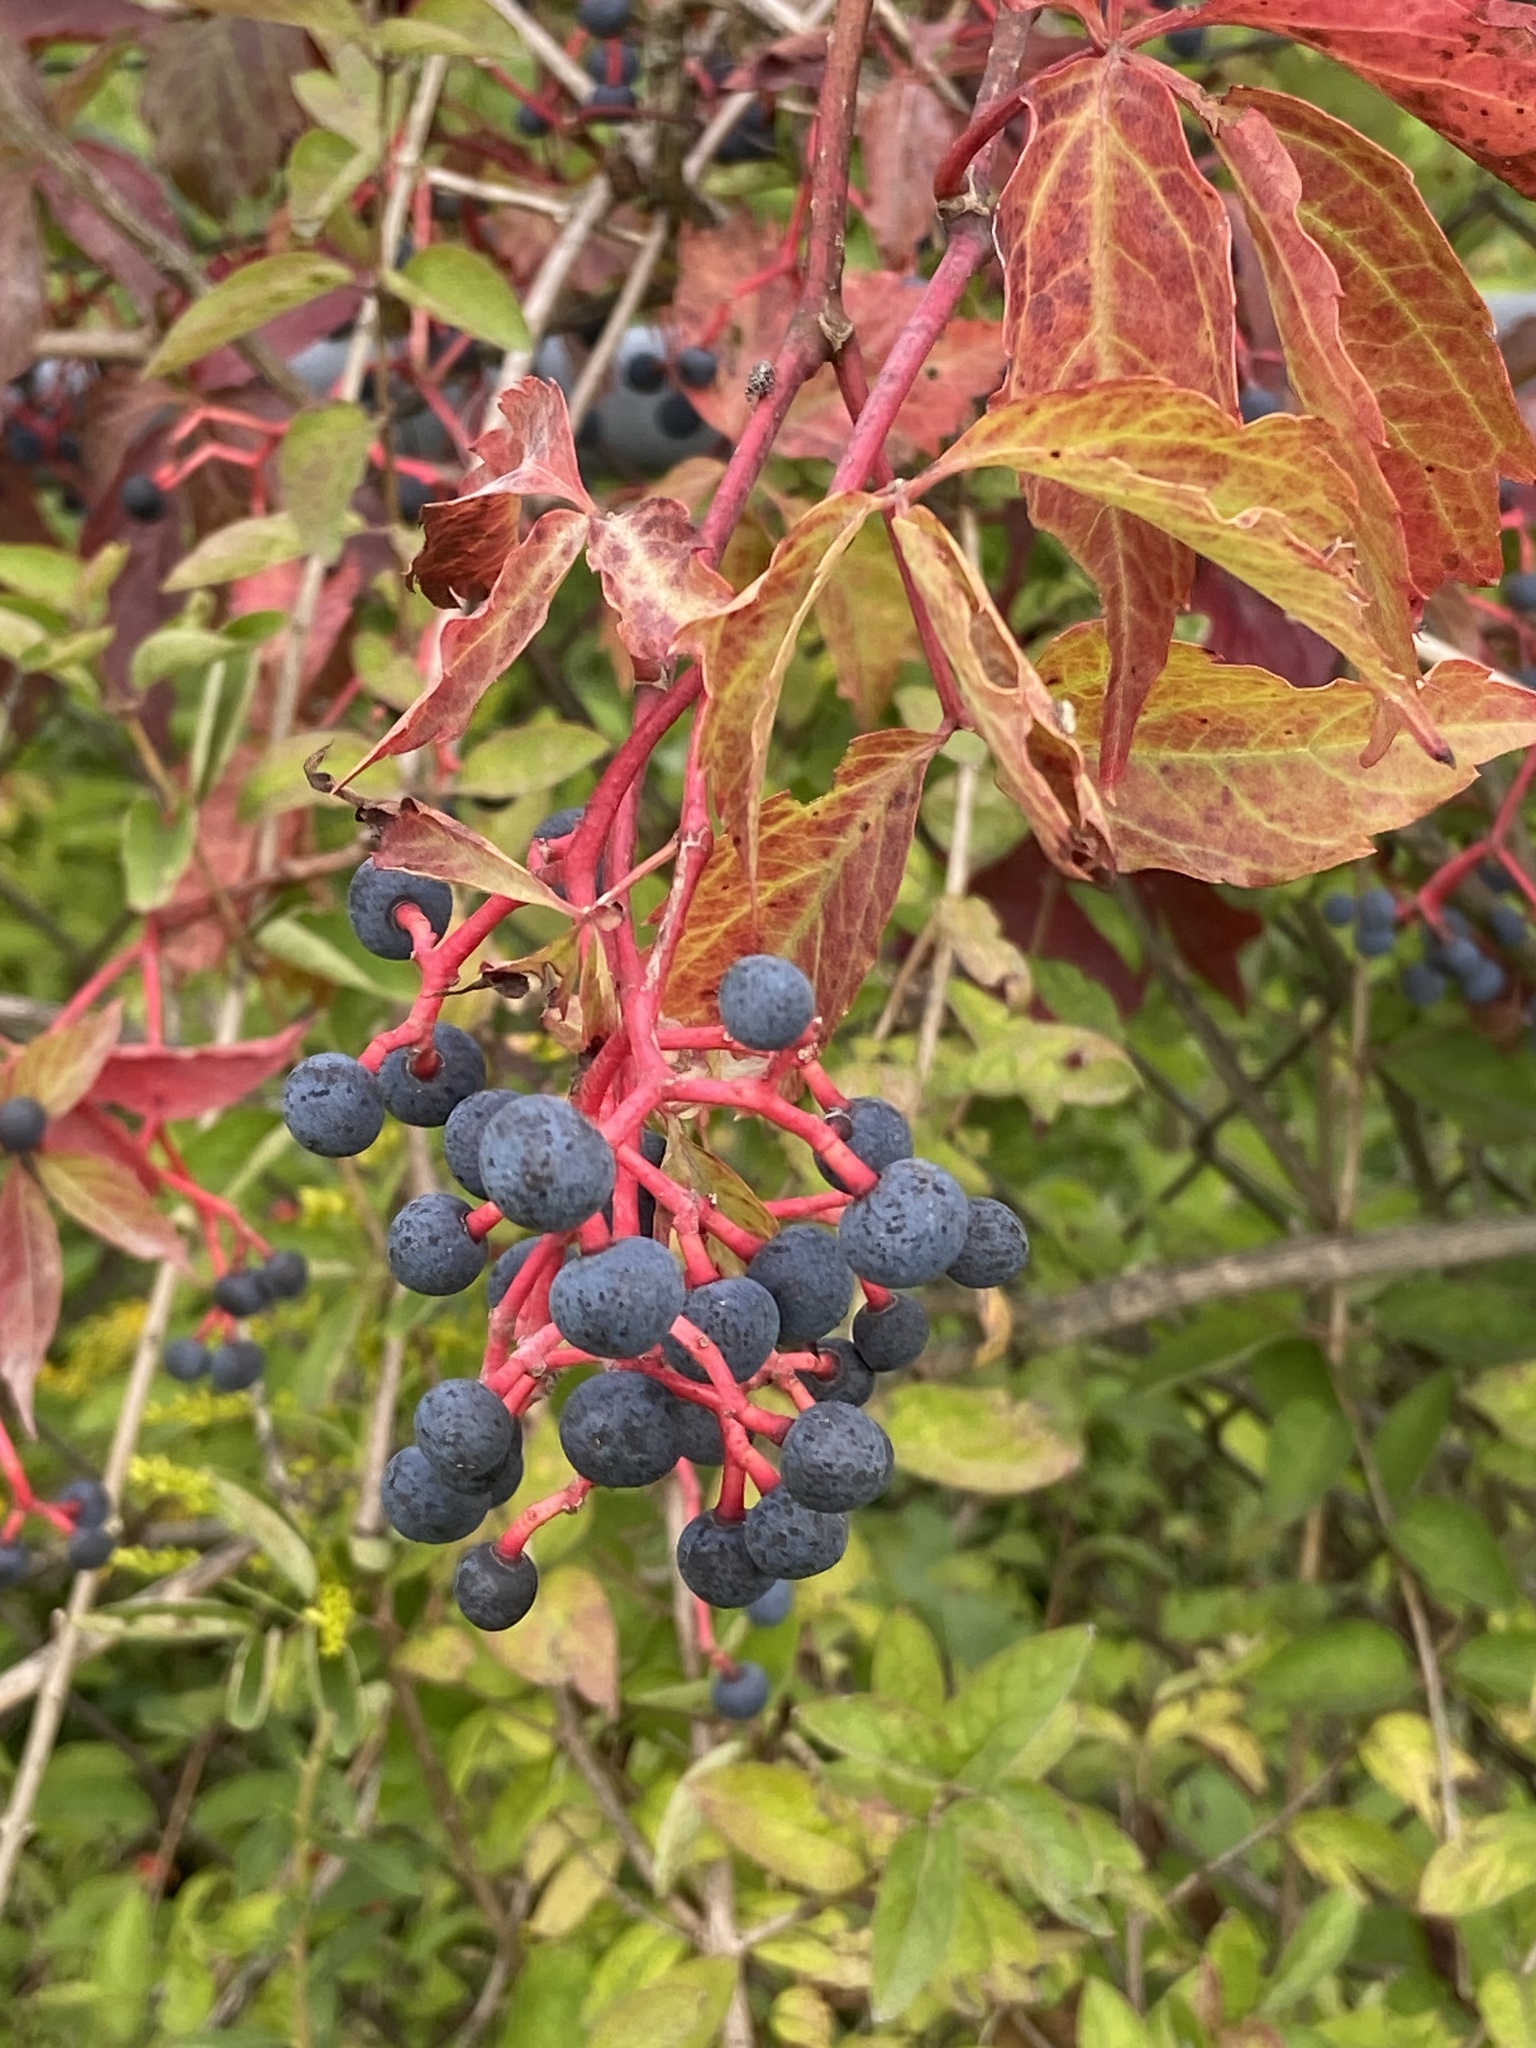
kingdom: Plantae
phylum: Tracheophyta
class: Magnoliopsida
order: Vitales
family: Vitaceae
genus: Parthenocissus
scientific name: Parthenocissus quinquefolia
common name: Virginia-creeper
